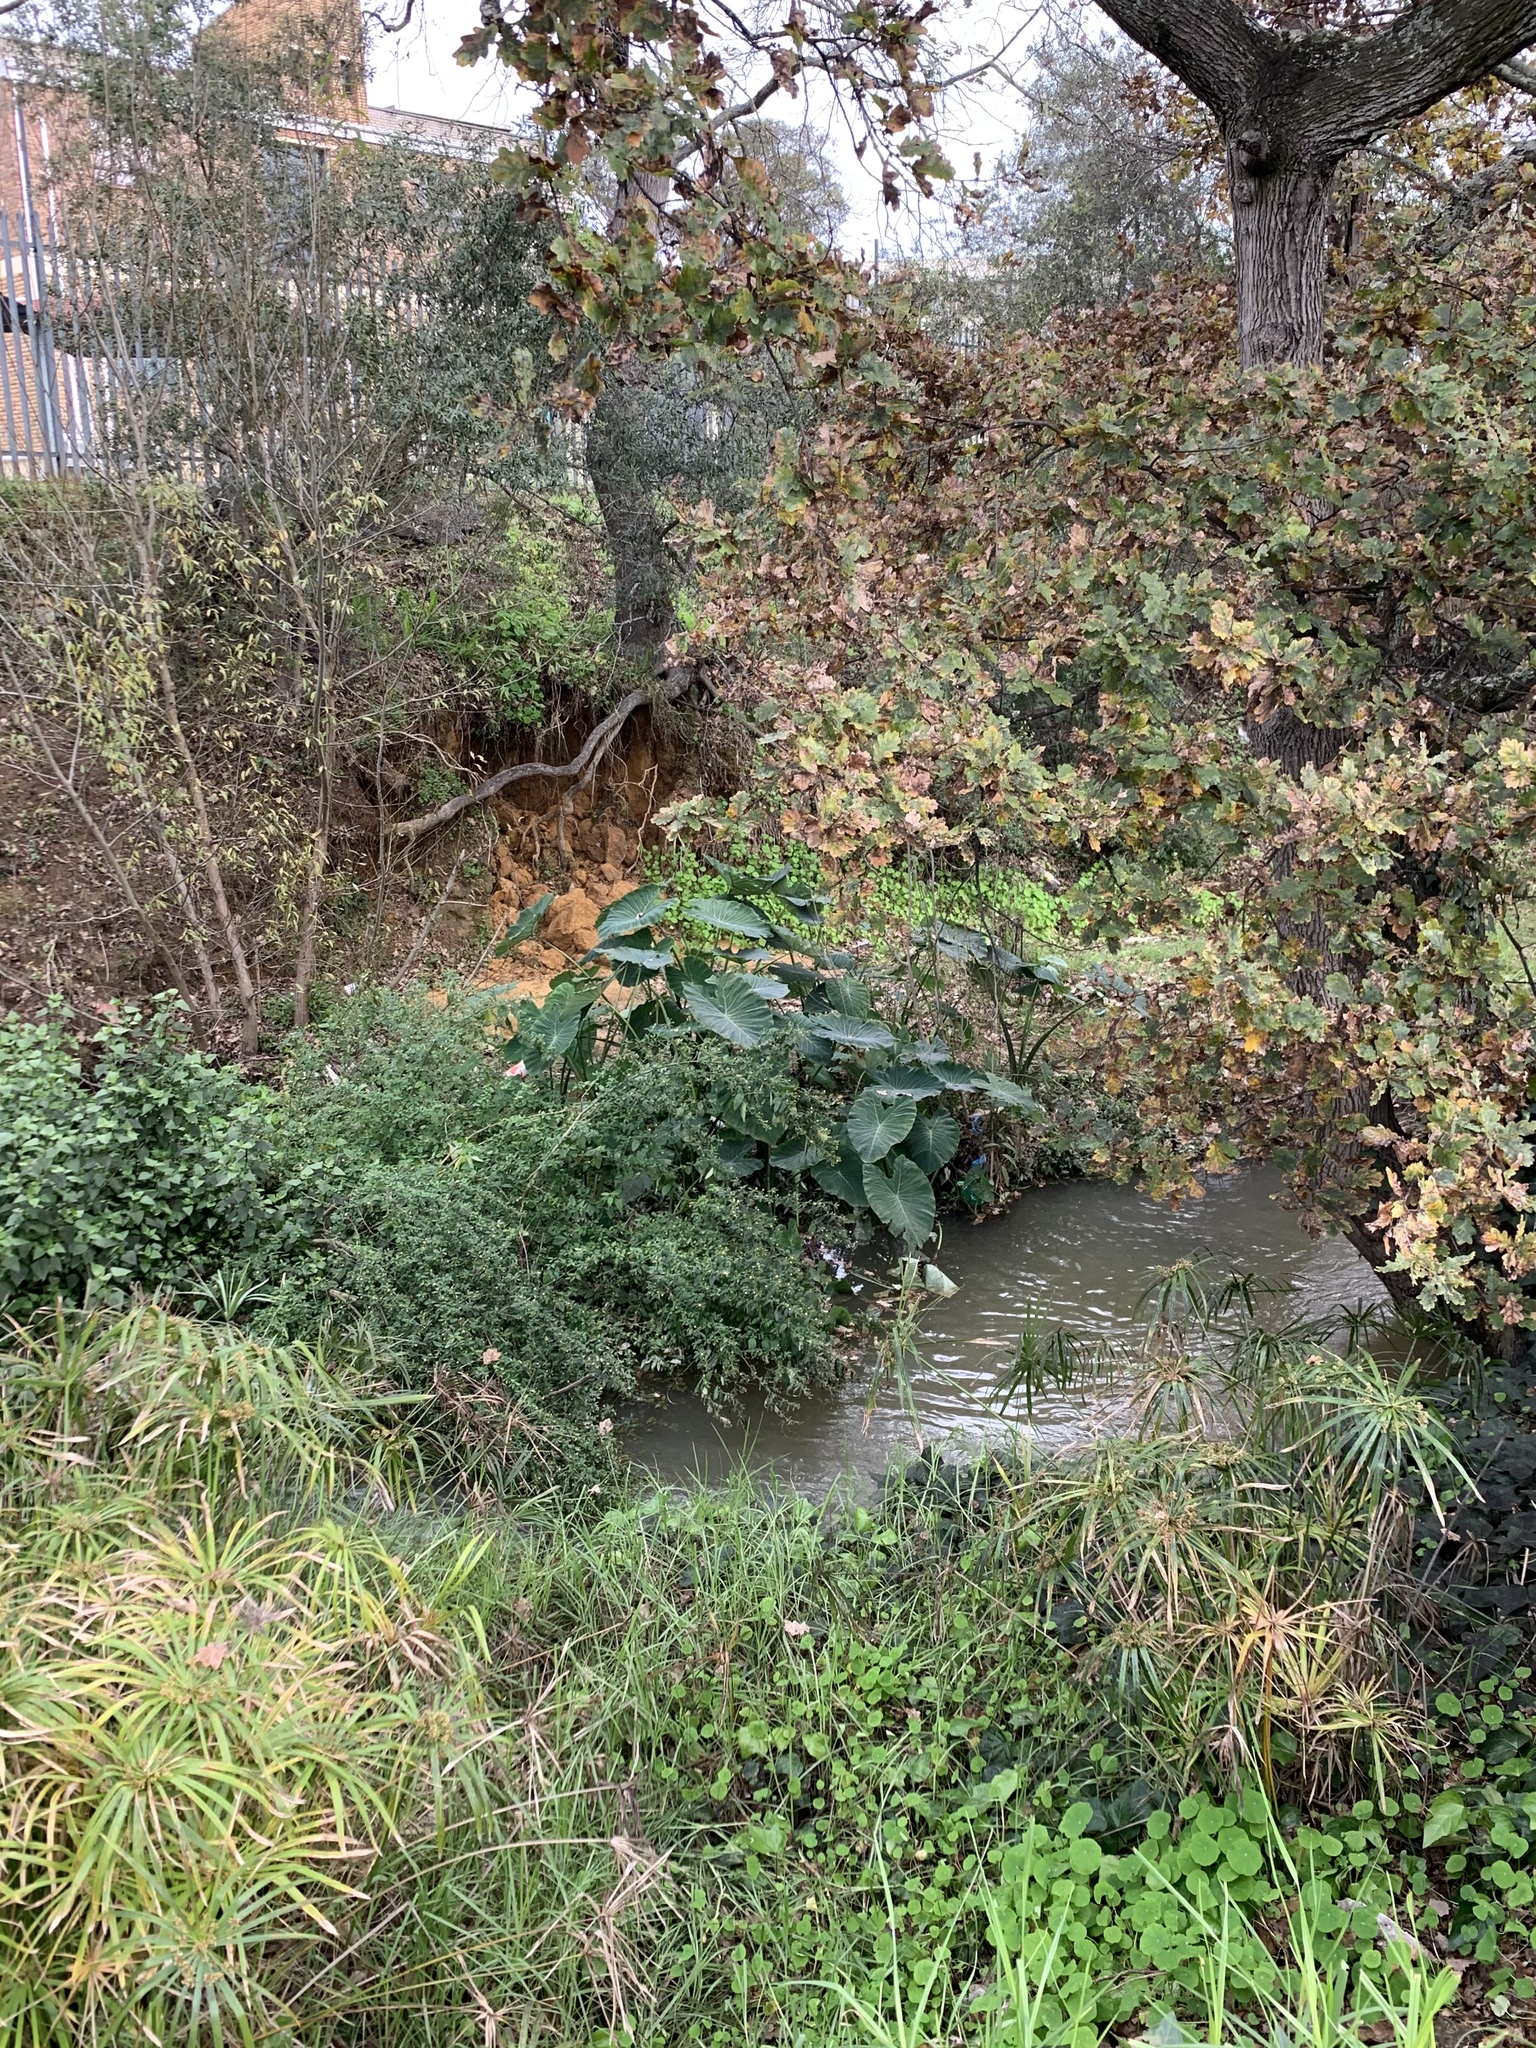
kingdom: Plantae
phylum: Tracheophyta
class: Liliopsida
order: Alismatales
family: Araceae
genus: Colocasia
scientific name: Colocasia esculenta
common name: Taro
